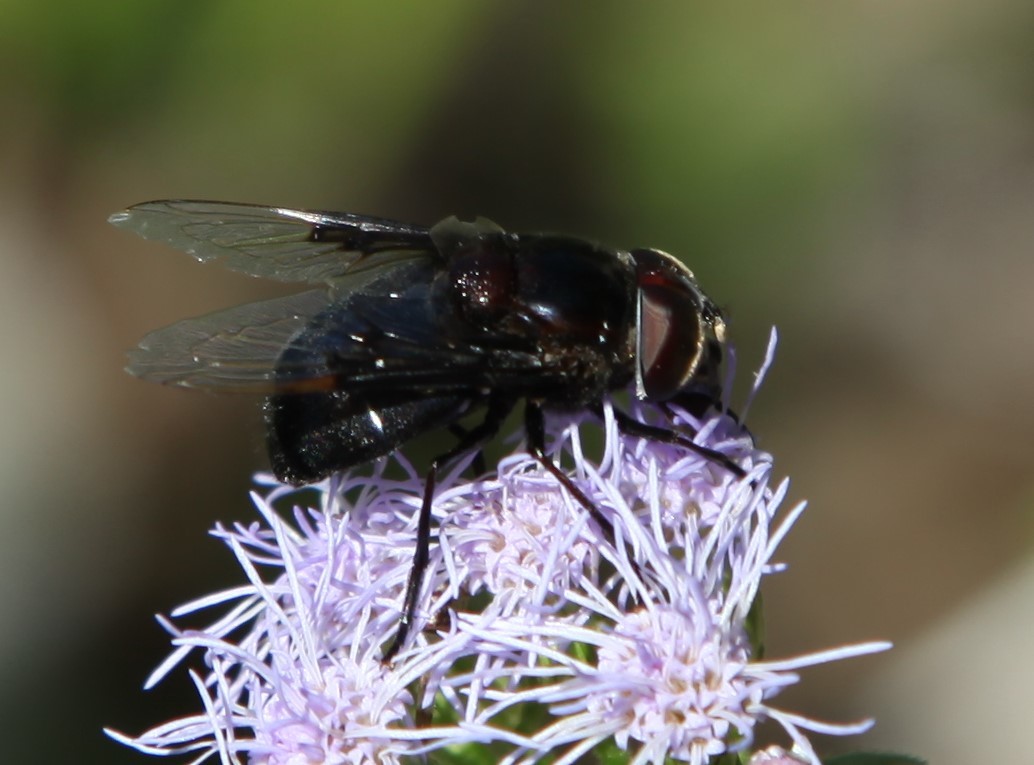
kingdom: Animalia
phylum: Arthropoda
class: Insecta
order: Diptera
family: Syrphidae
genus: Copestylum
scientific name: Copestylum mexicanum
